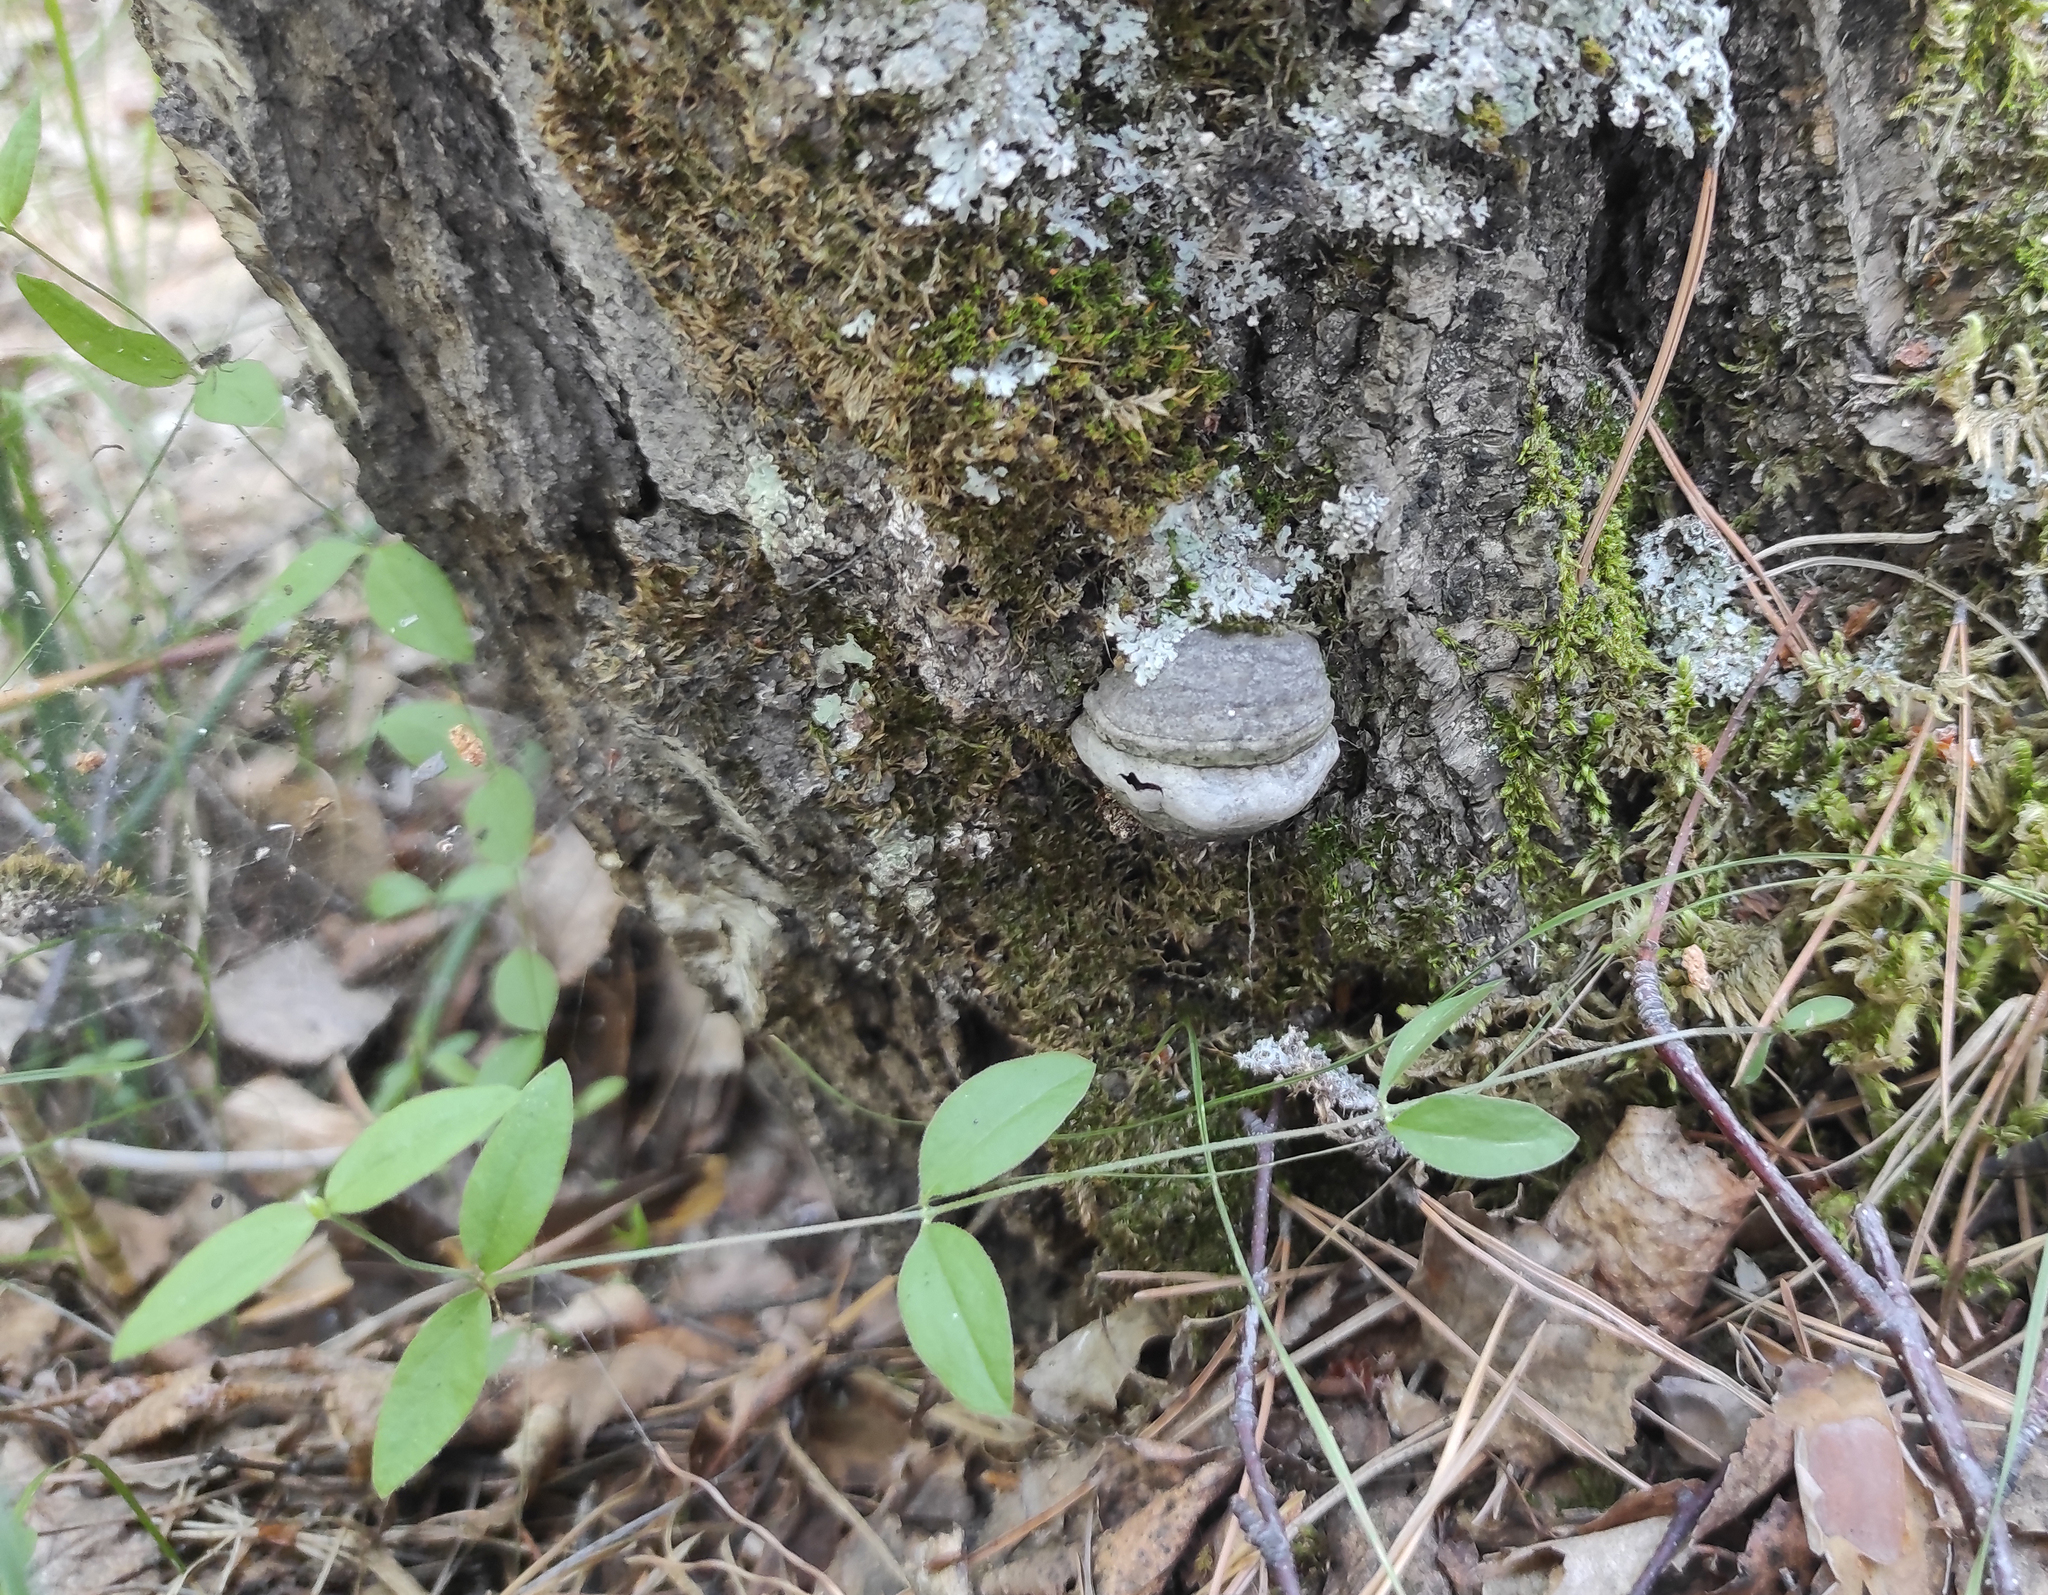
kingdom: Plantae
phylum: Tracheophyta
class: Magnoliopsida
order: Caryophyllales
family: Caryophyllaceae
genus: Moehringia
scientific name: Moehringia lateriflora
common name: Blunt-leaved sandwort
